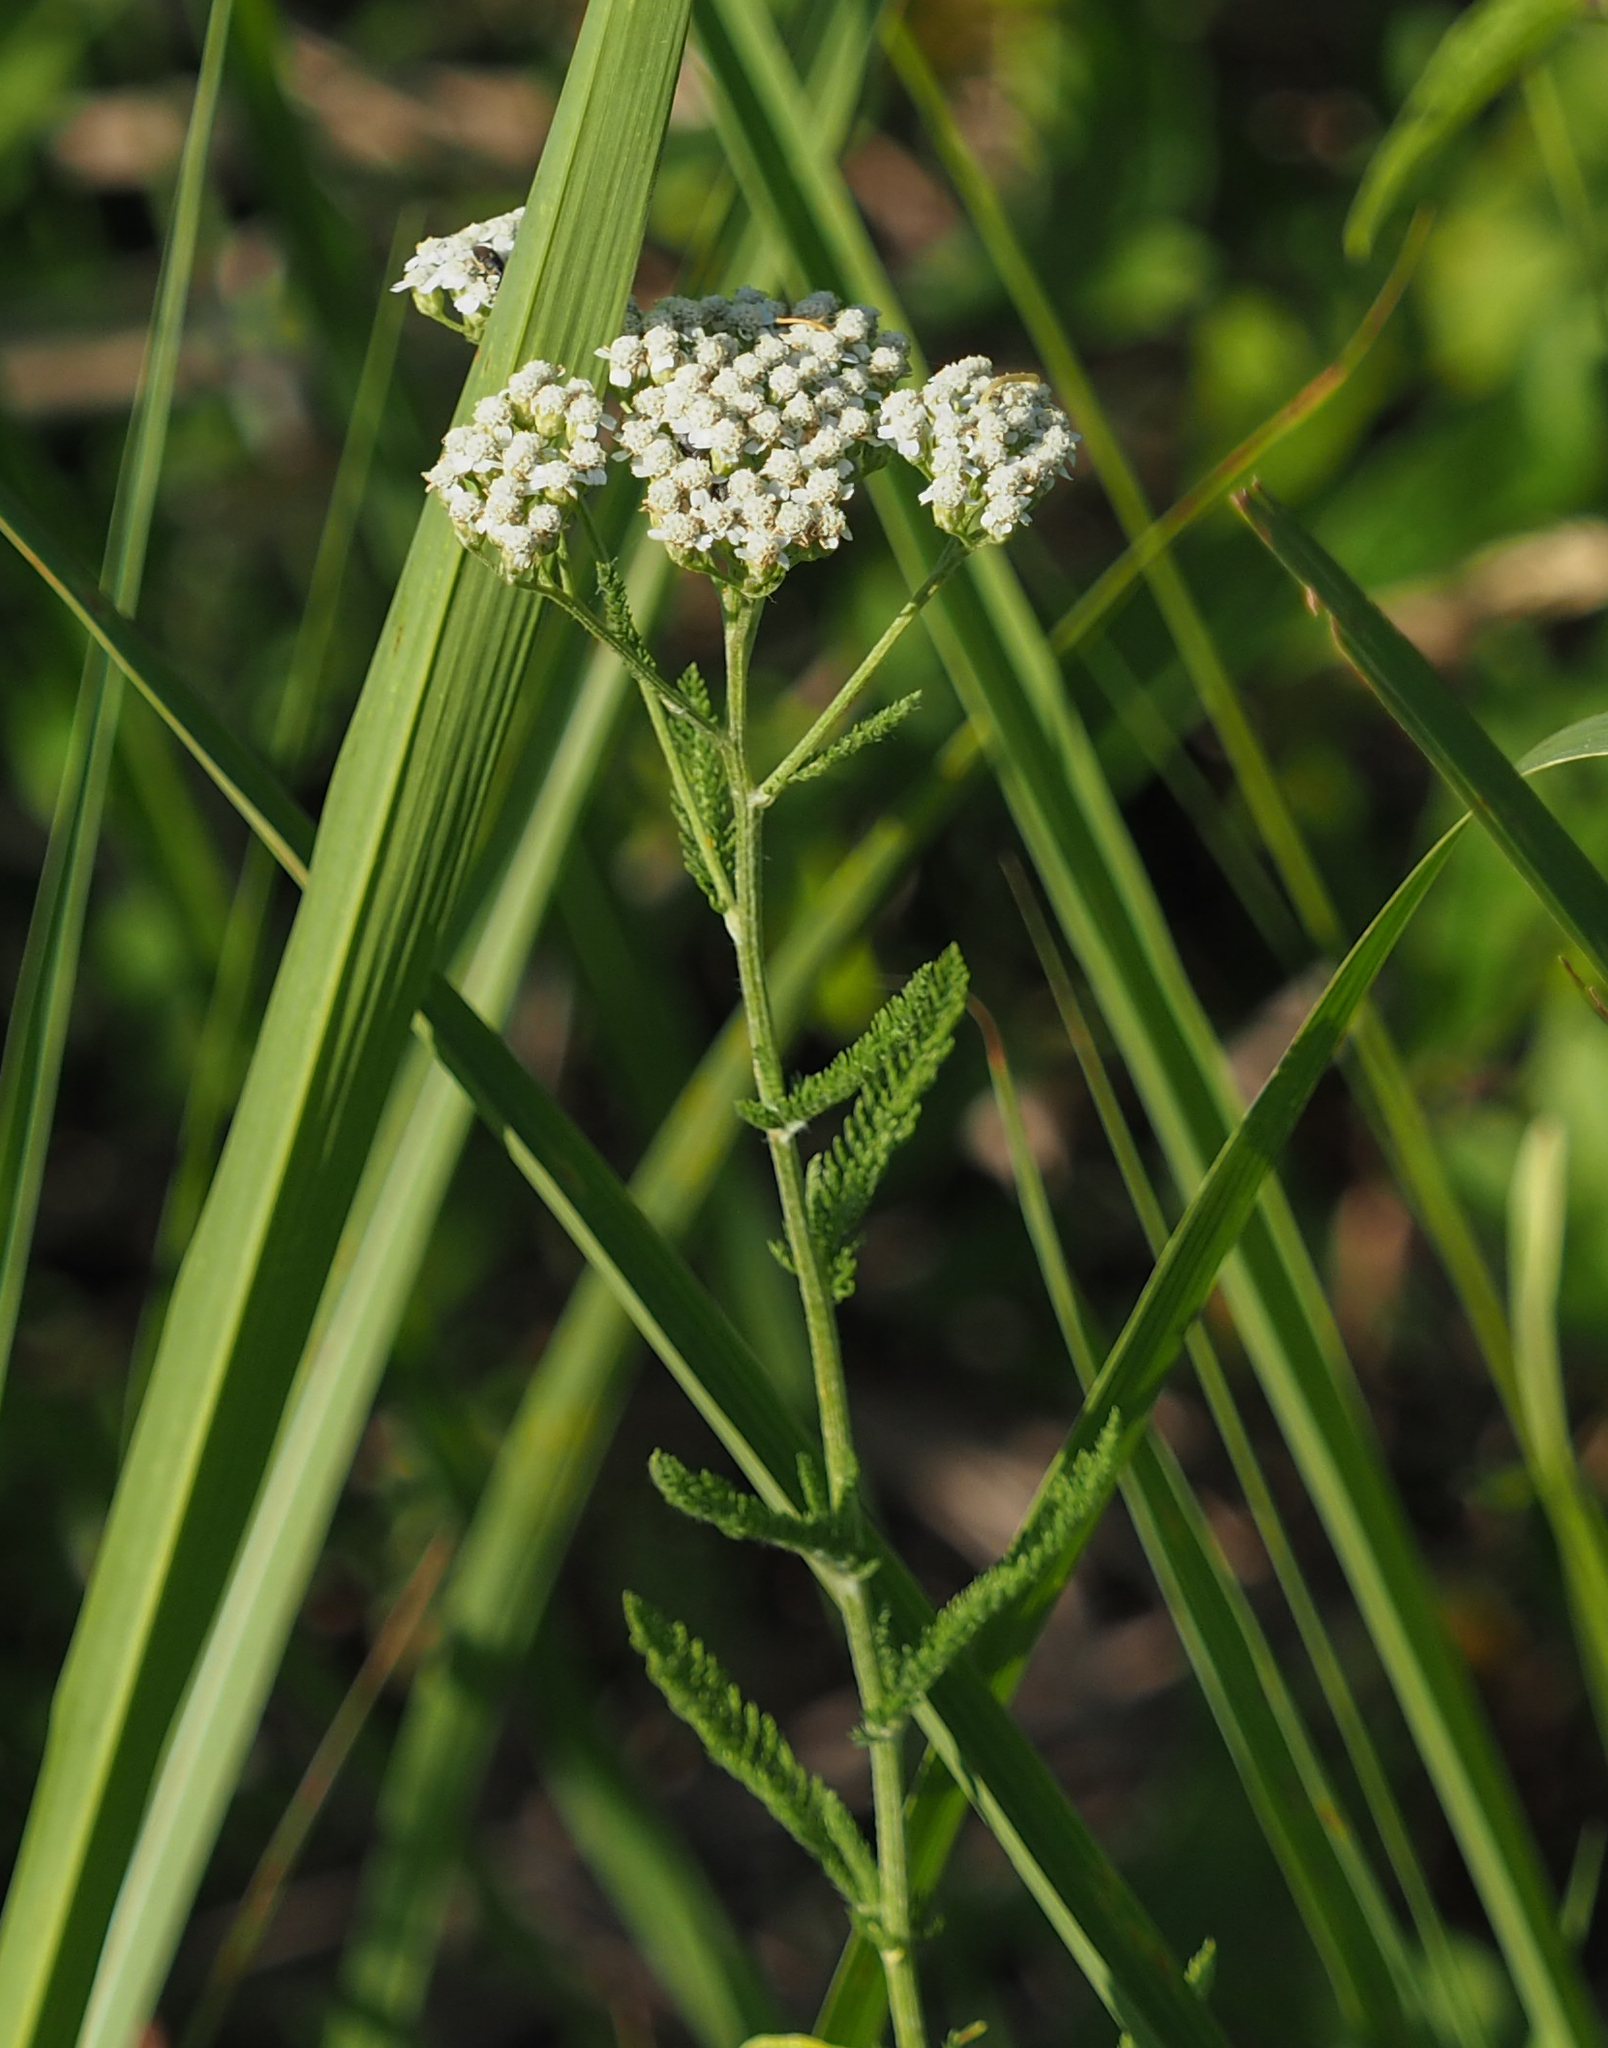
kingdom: Plantae
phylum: Tracheophyta
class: Magnoliopsida
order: Asterales
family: Asteraceae
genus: Achillea
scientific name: Achillea millefolium
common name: Yarrow
